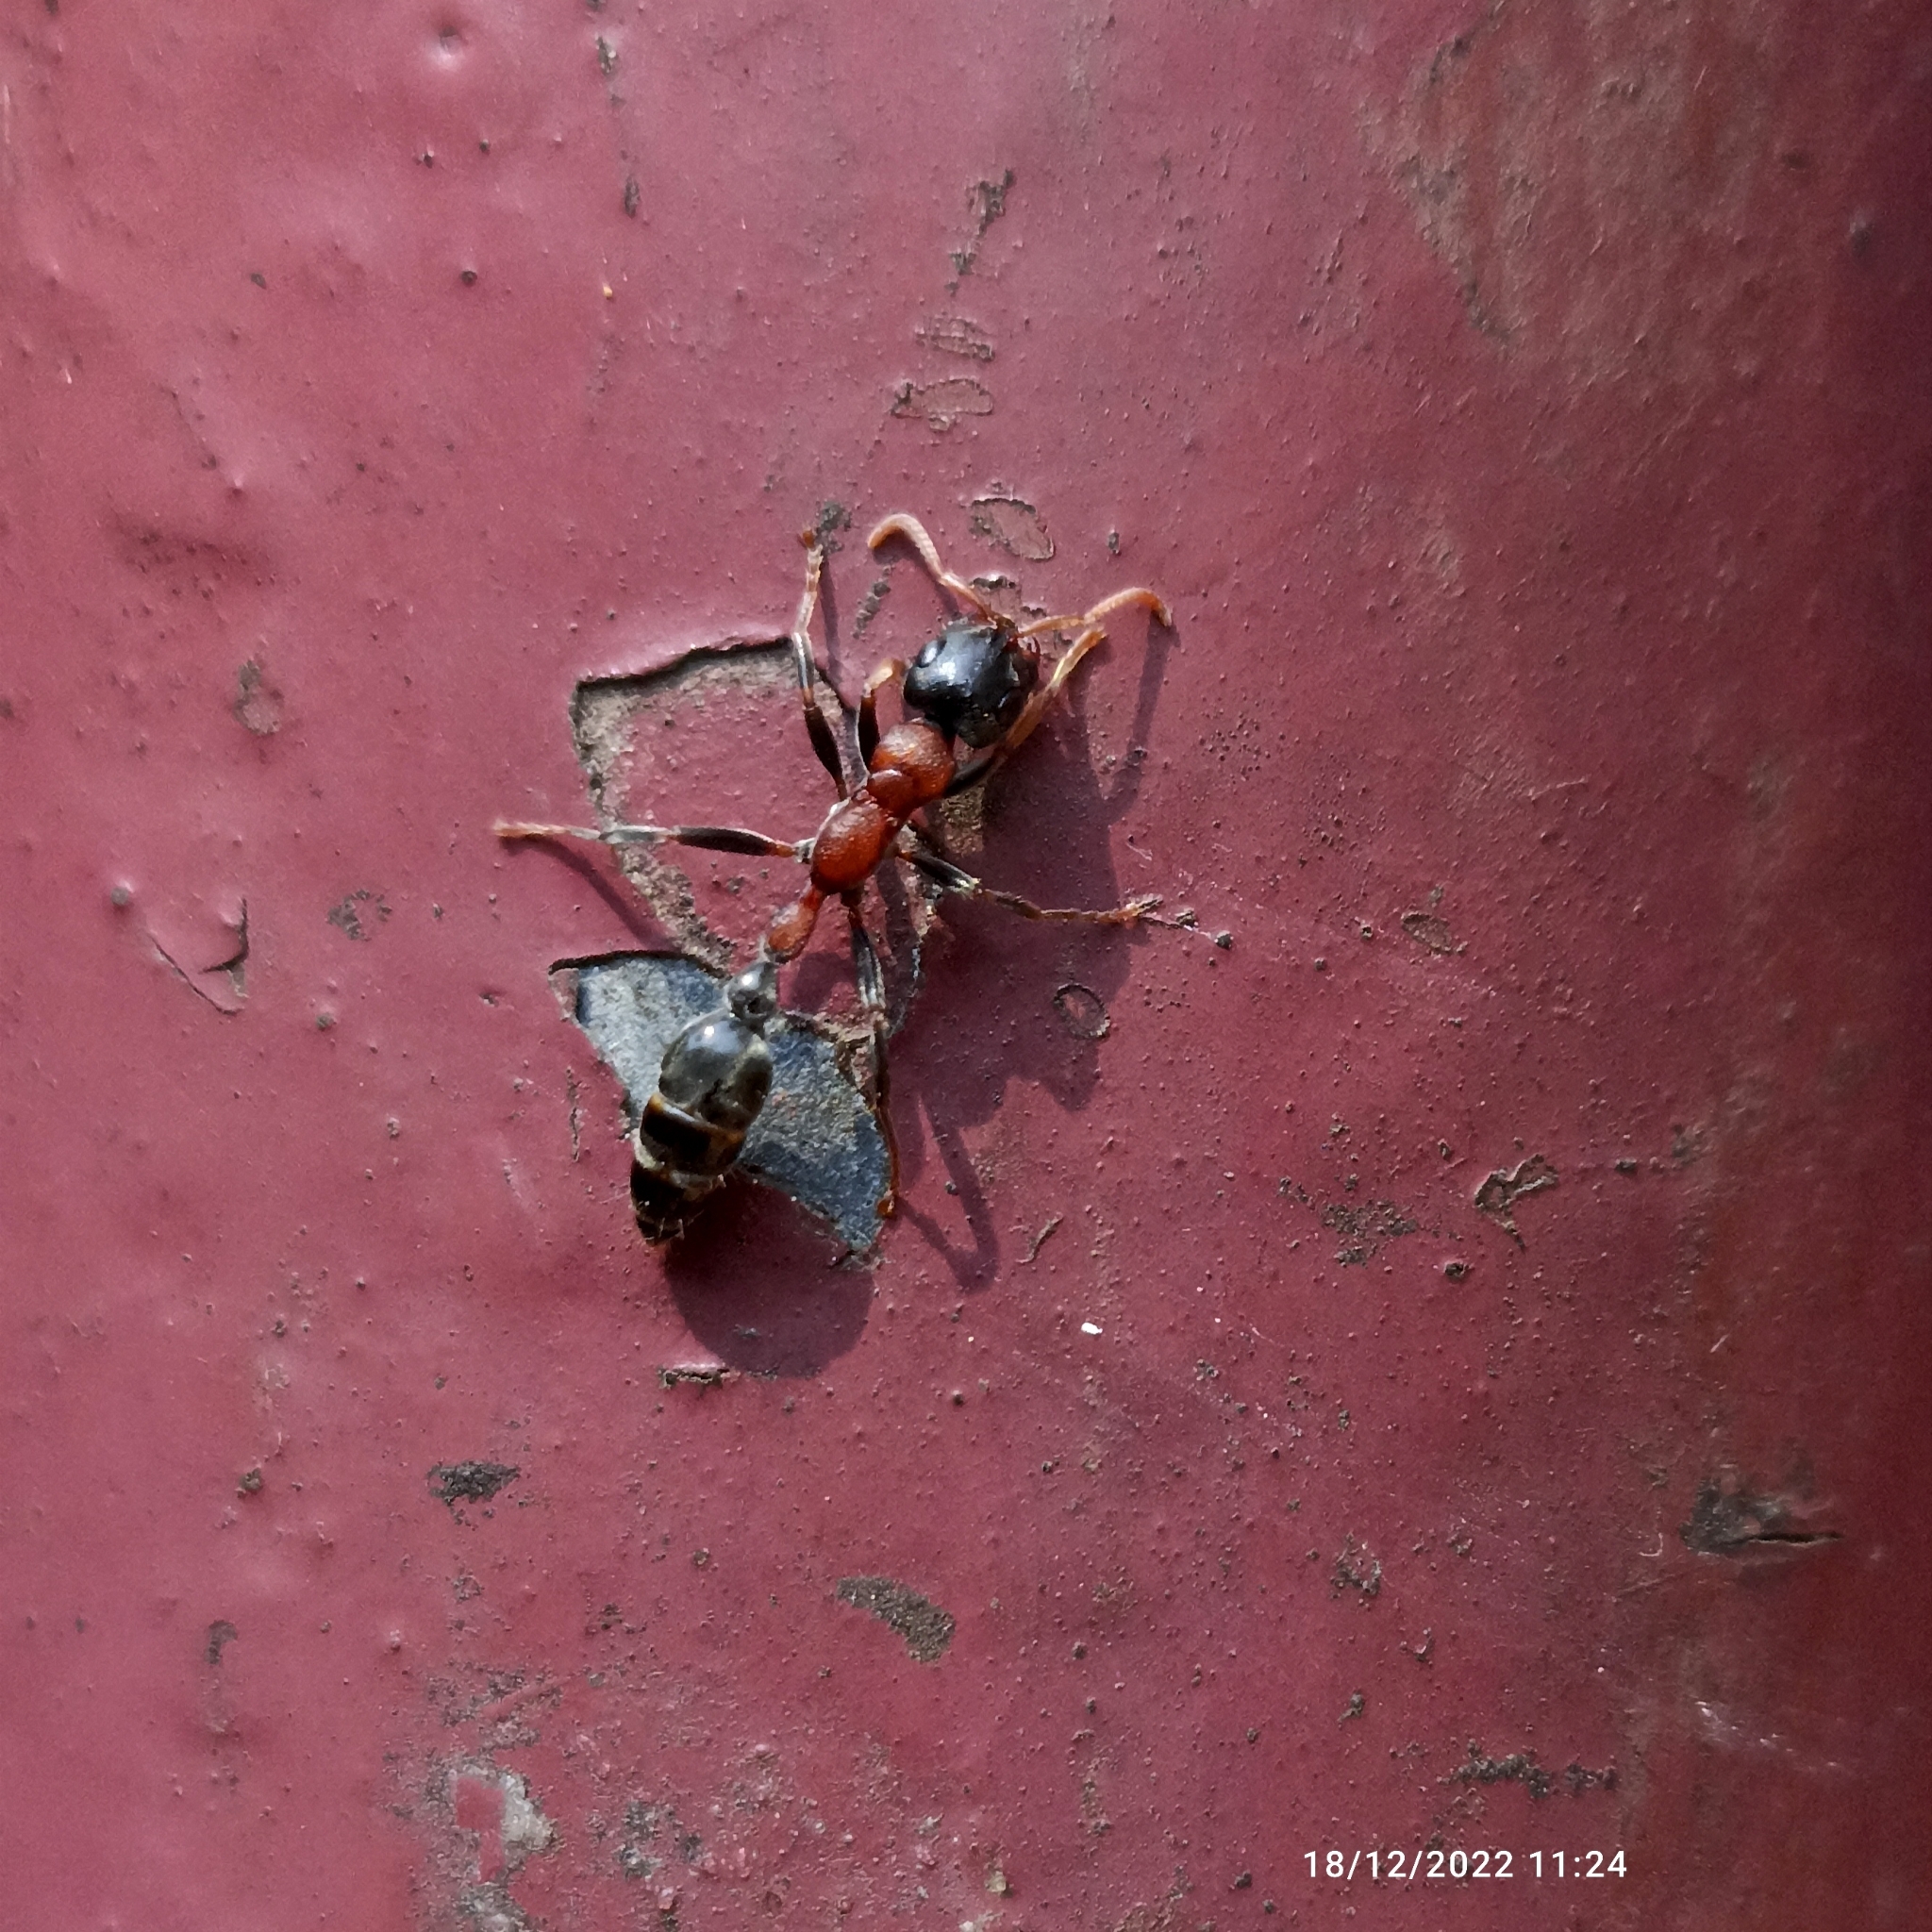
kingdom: Animalia
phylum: Arthropoda
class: Insecta
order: Hymenoptera
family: Formicidae
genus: Tetraponera
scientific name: Tetraponera rufonigra
